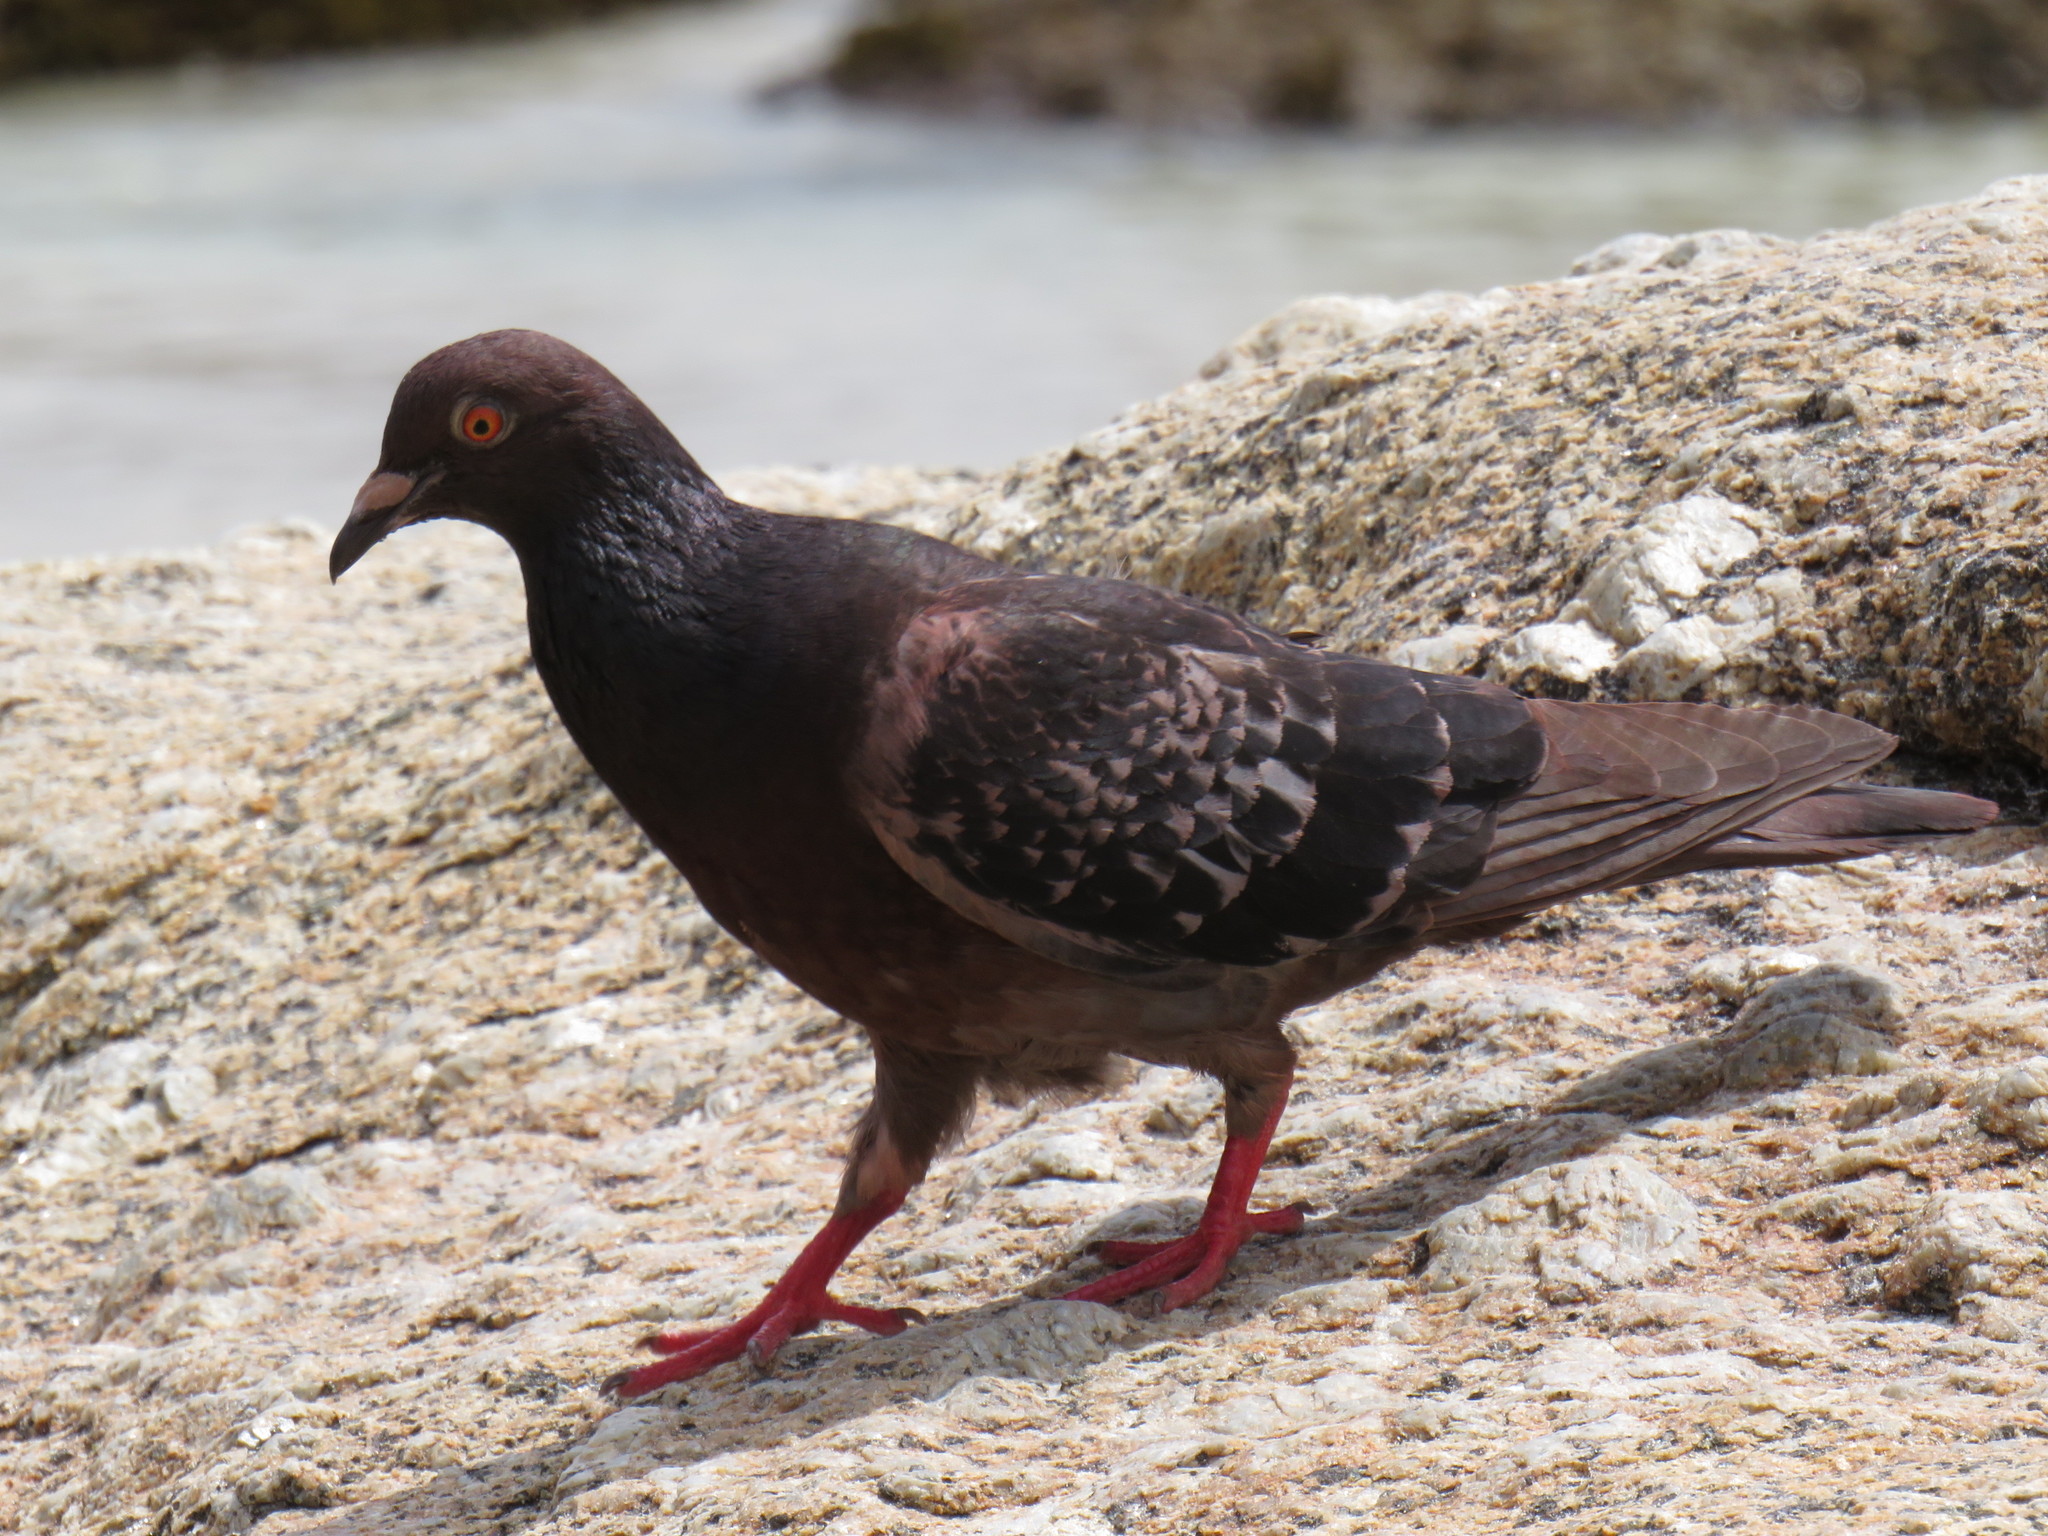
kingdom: Animalia
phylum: Chordata
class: Aves
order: Columbiformes
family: Columbidae
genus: Columba
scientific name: Columba livia
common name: Rock pigeon
